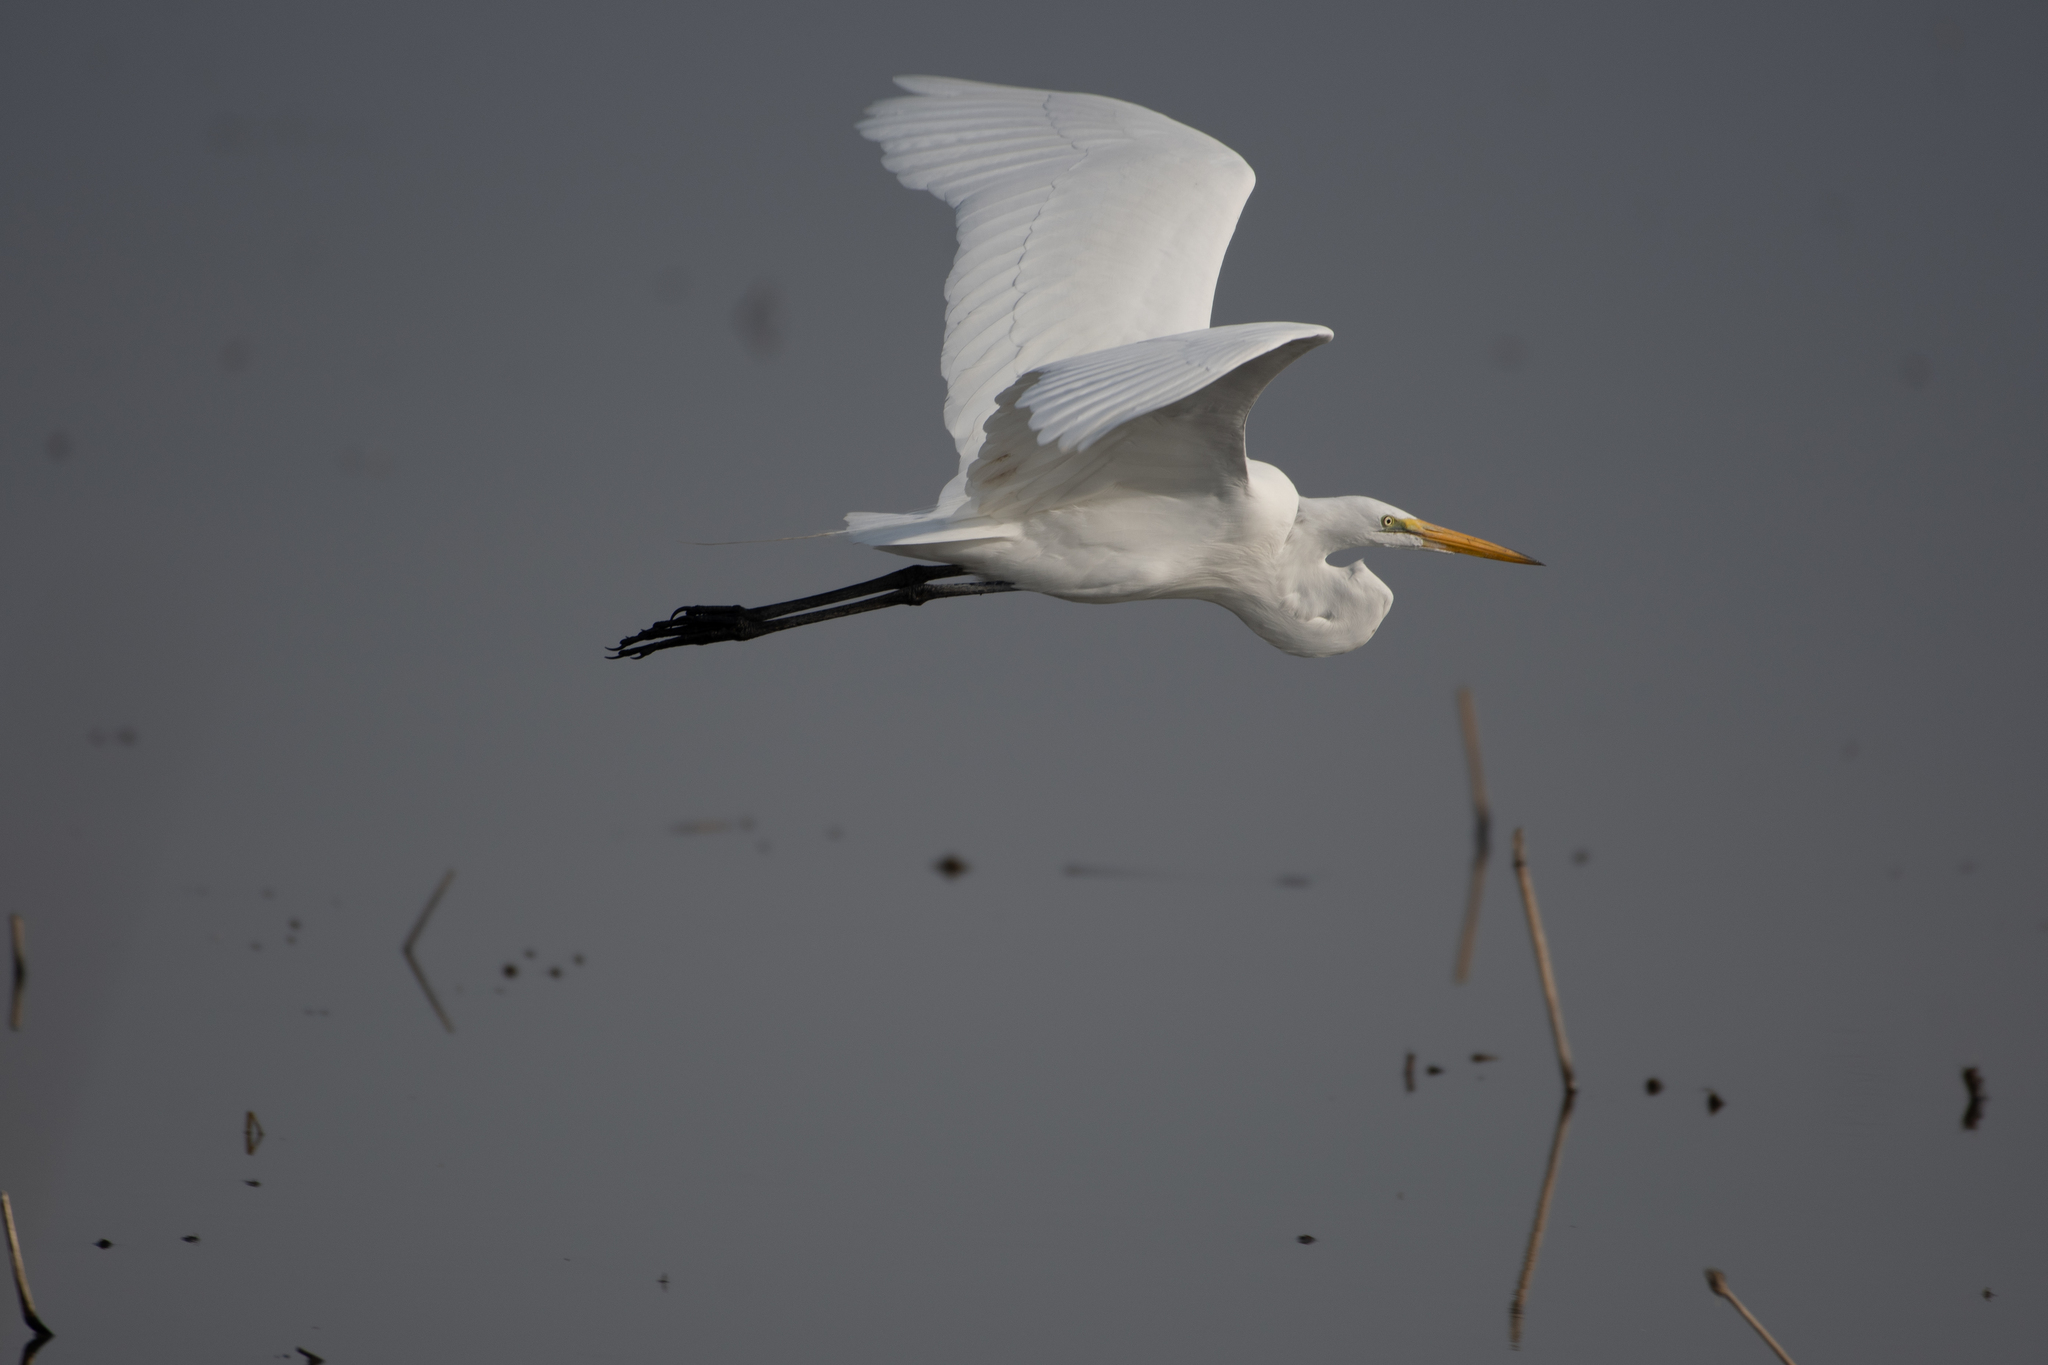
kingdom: Animalia
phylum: Chordata
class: Aves
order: Pelecaniformes
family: Ardeidae
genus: Ardea
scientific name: Ardea alba
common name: Great egret
